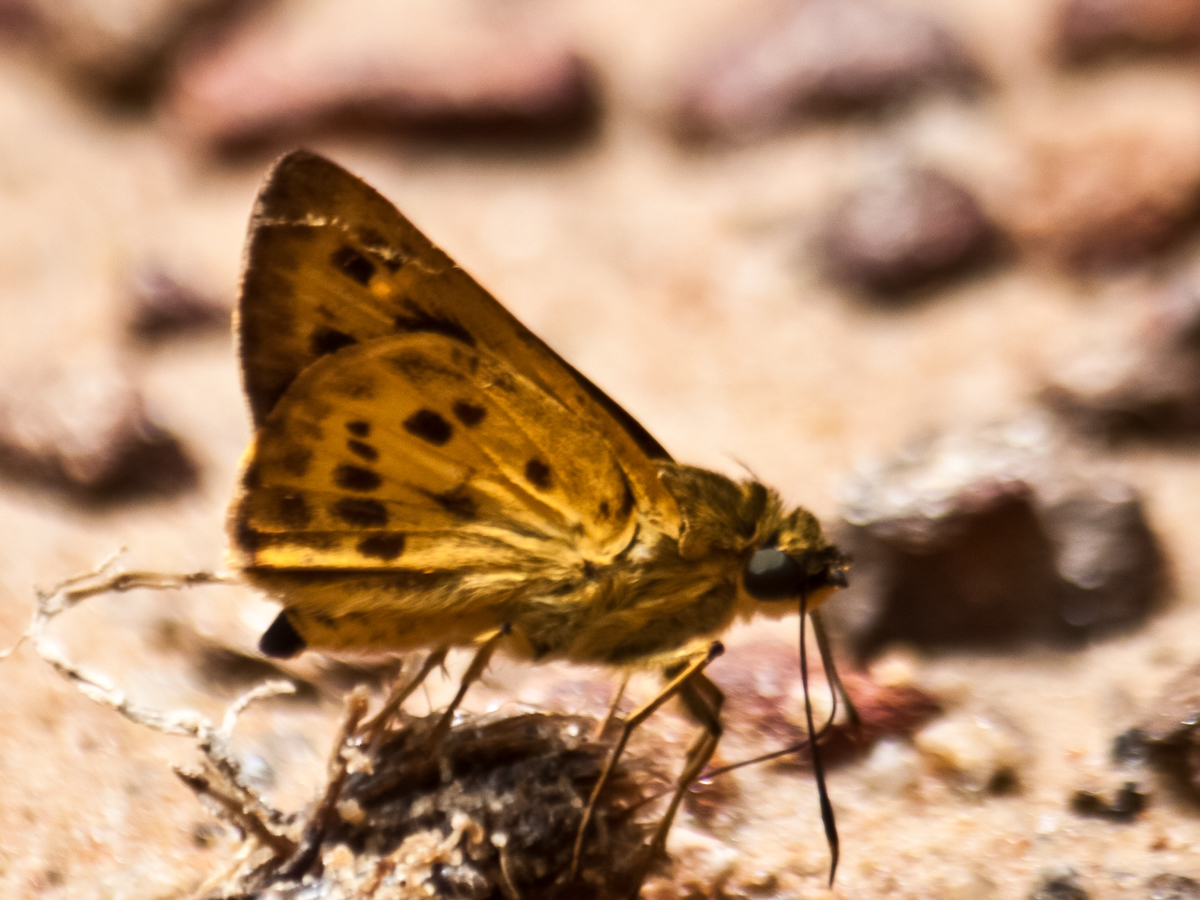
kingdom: Animalia
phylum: Arthropoda
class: Insecta
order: Lepidoptera
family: Hesperiidae
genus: Thoressa
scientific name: Thoressa masoni
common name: Golden ace
